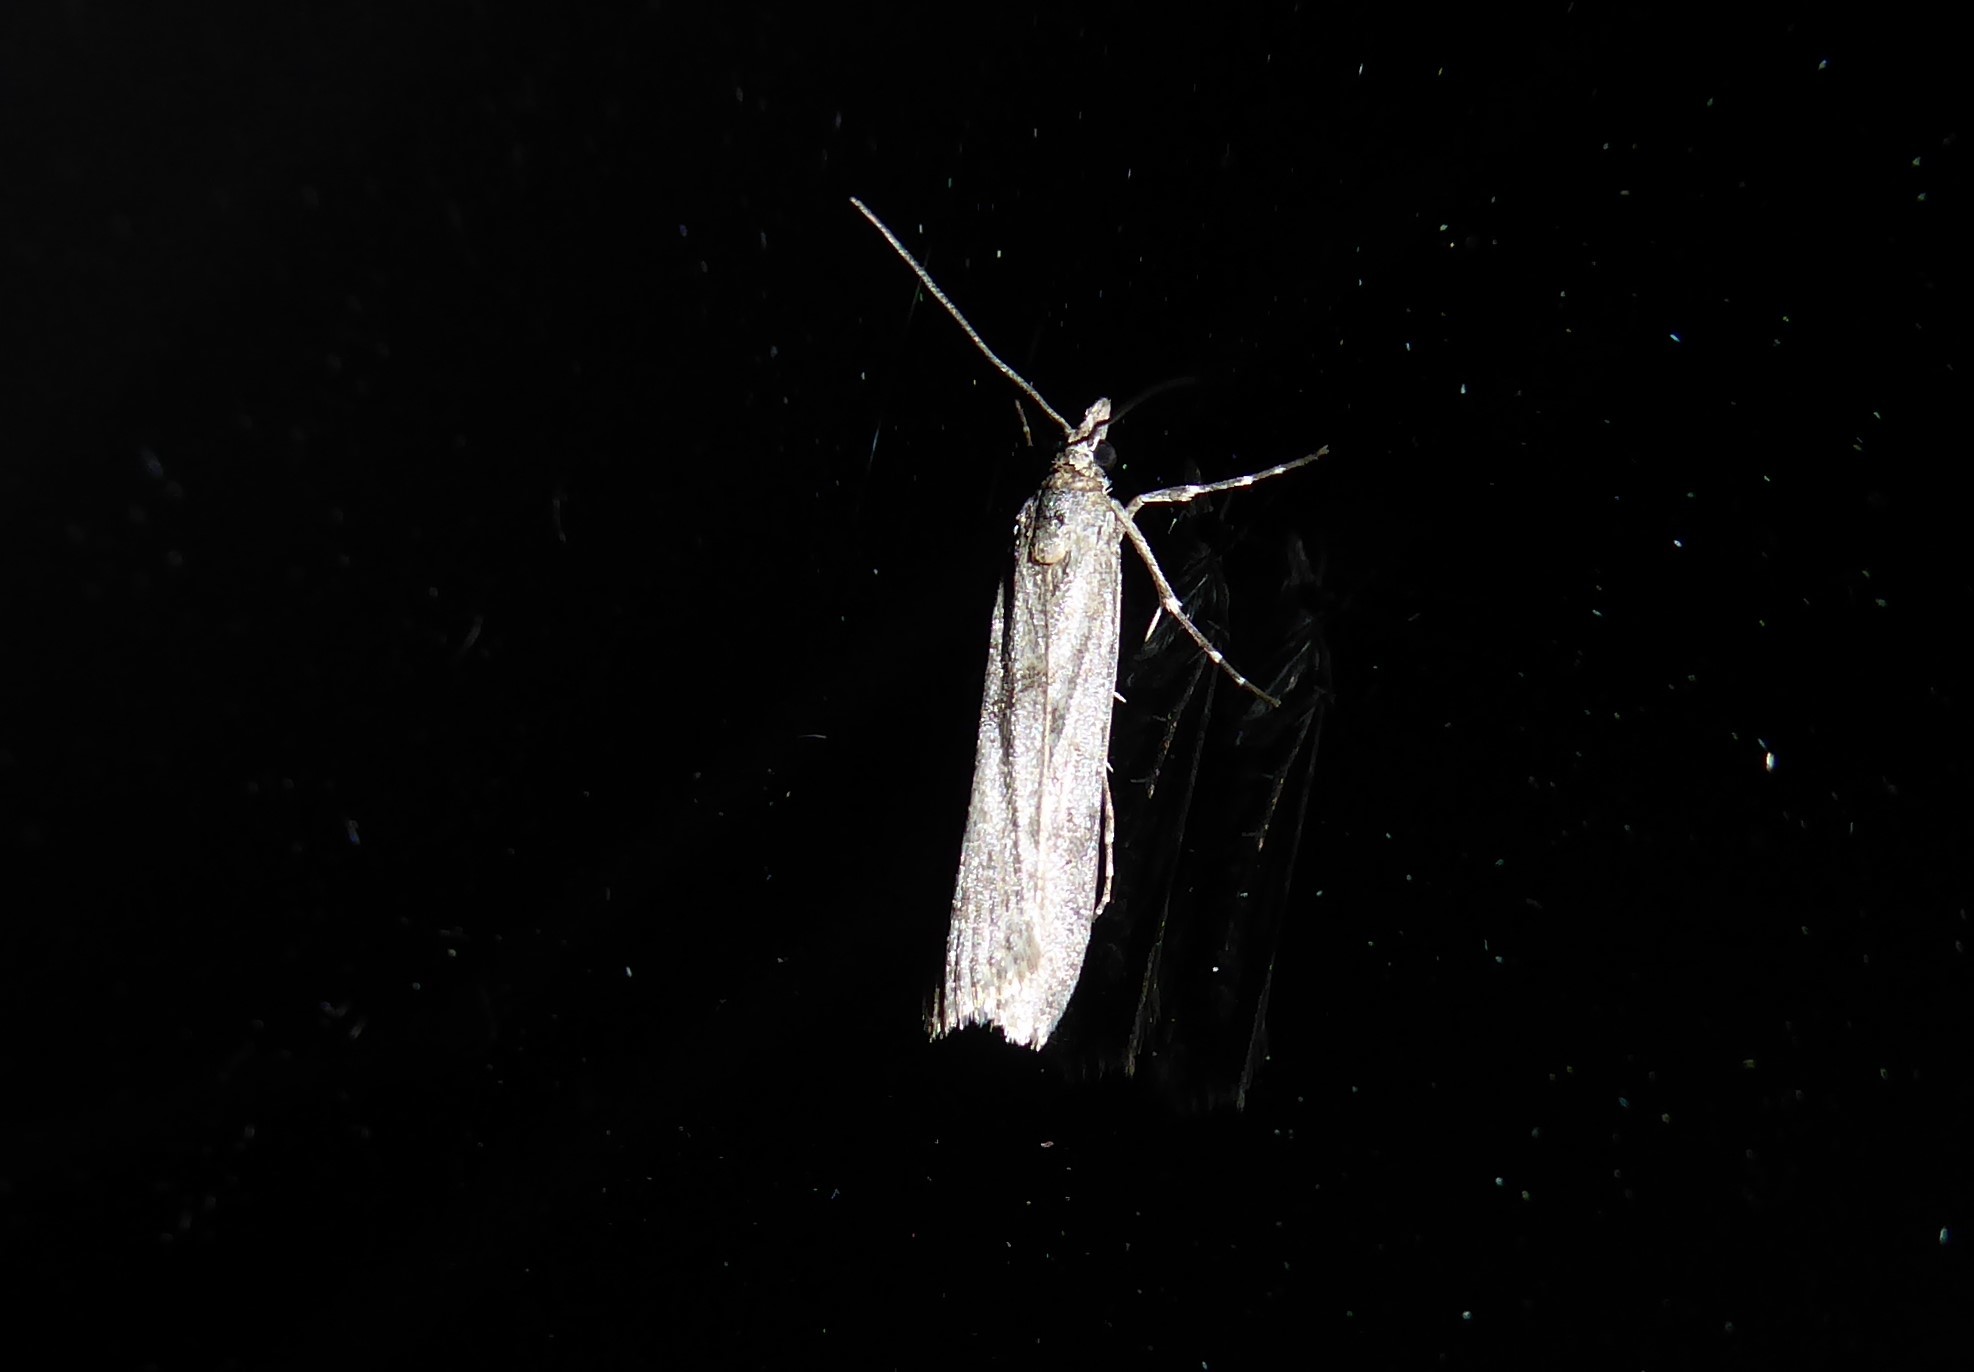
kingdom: Animalia
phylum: Arthropoda
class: Insecta
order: Lepidoptera
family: Crambidae
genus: Eudonia
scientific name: Eudonia leptalea
